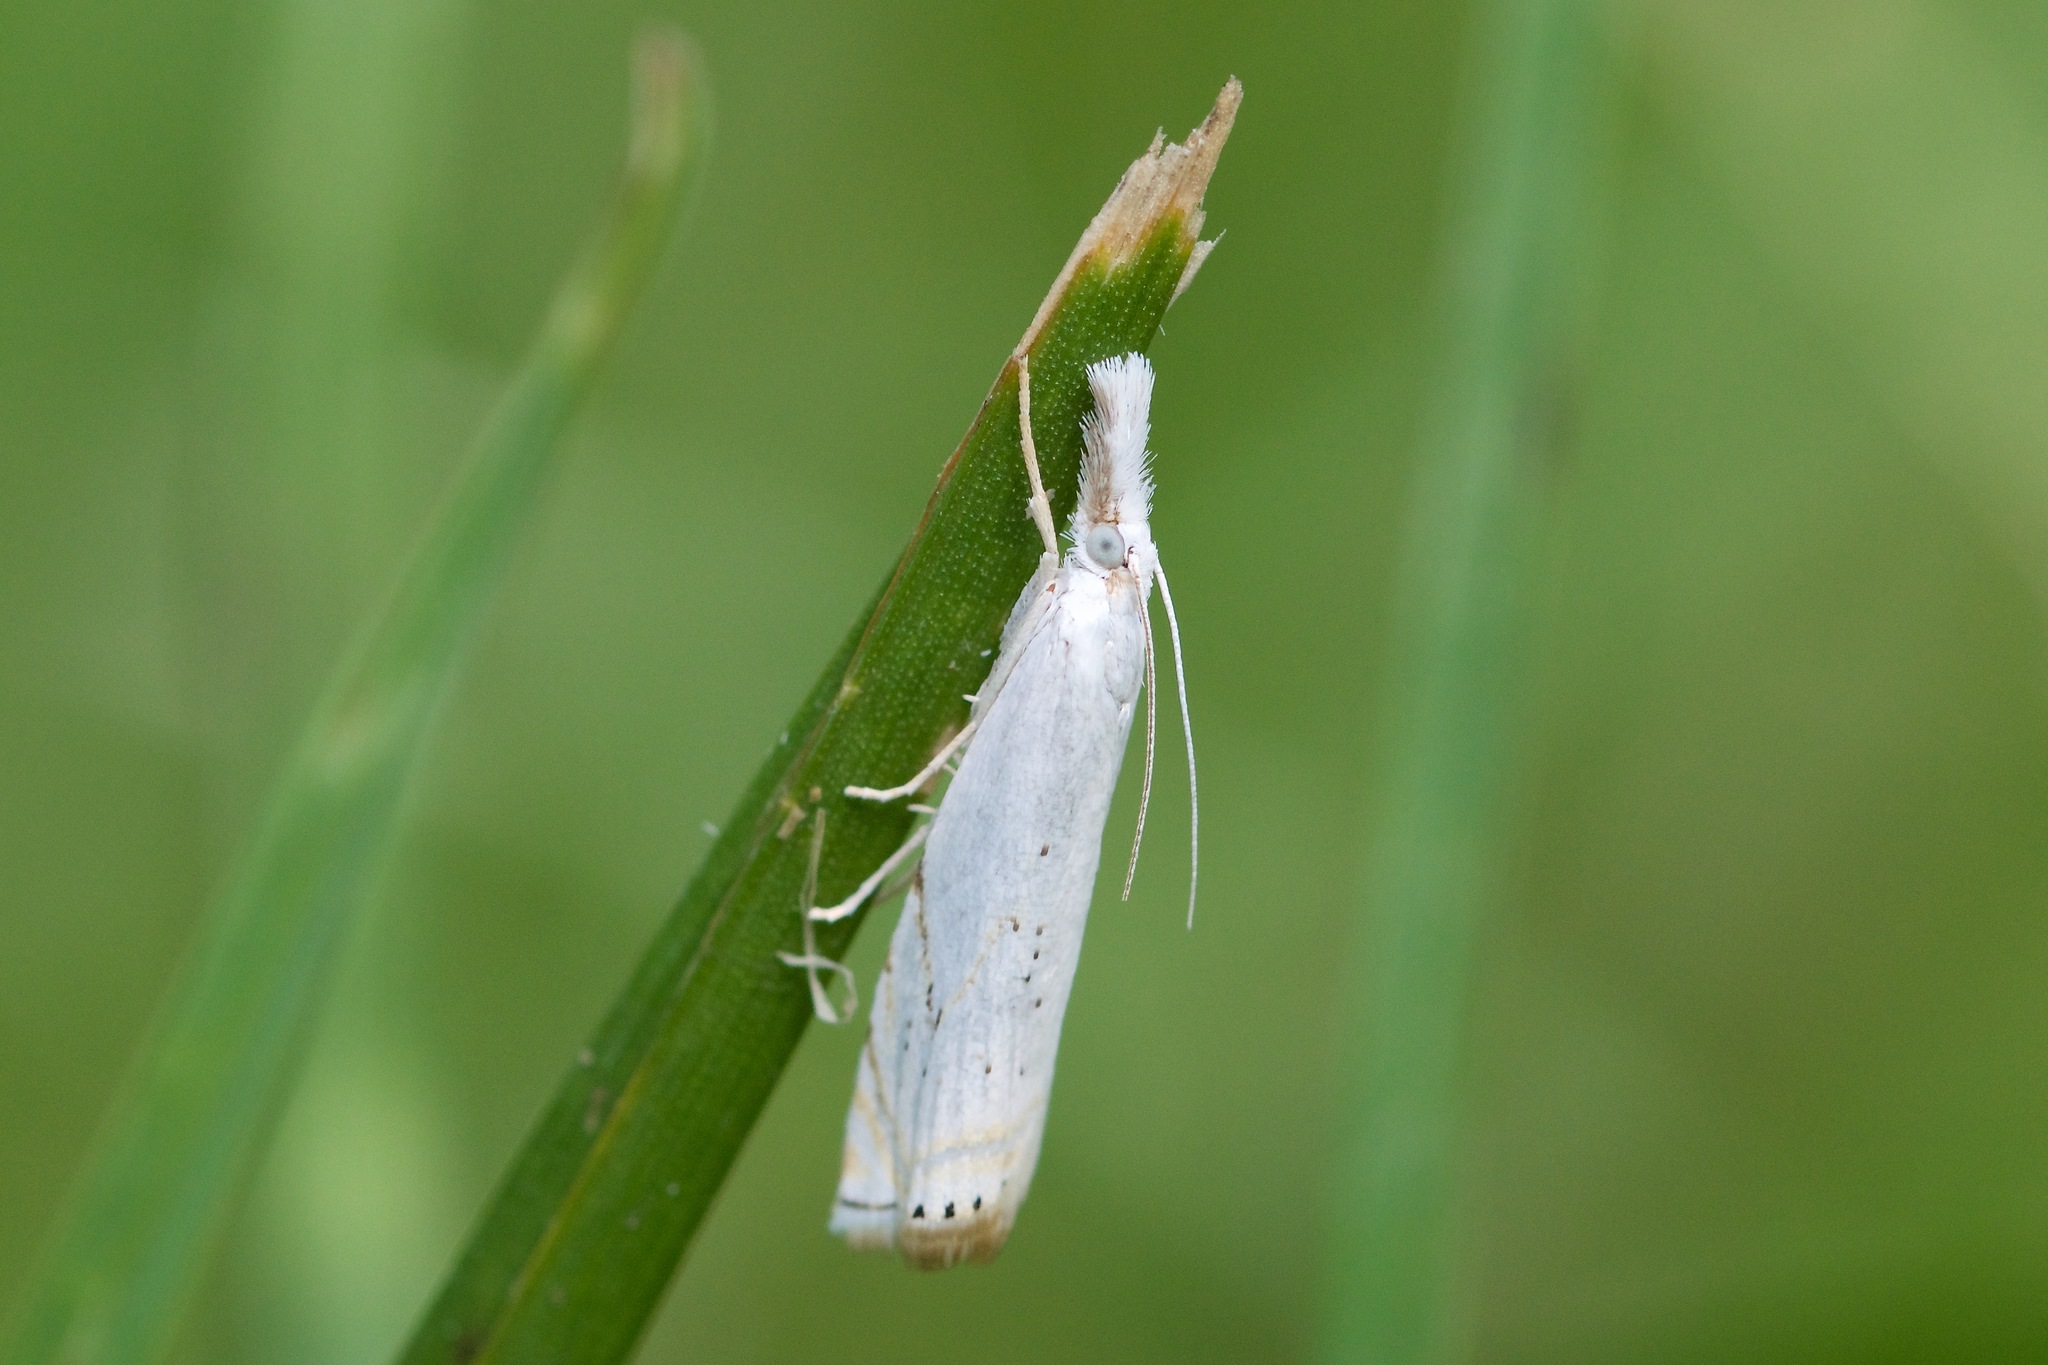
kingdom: Animalia
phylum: Arthropoda
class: Insecta
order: Lepidoptera
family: Crambidae
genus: Crambus
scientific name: Crambus albellus
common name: Small white grass-veneer
